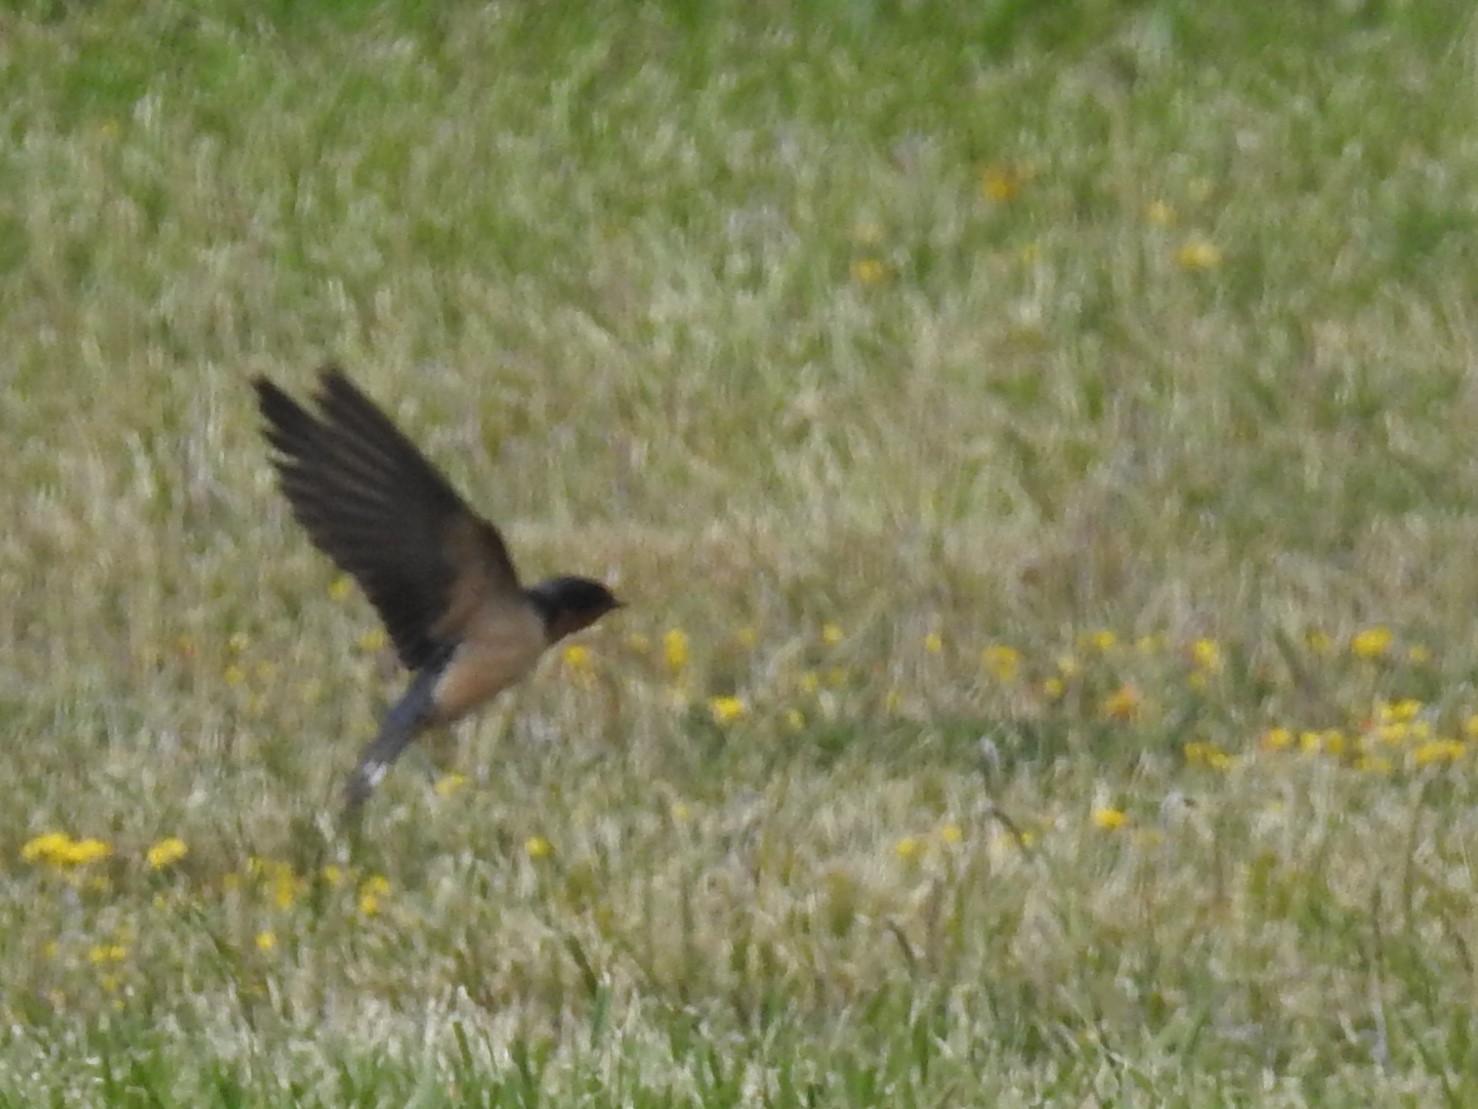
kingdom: Animalia
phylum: Chordata
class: Aves
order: Passeriformes
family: Hirundinidae
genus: Hirundo
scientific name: Hirundo rustica
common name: Barn swallow
